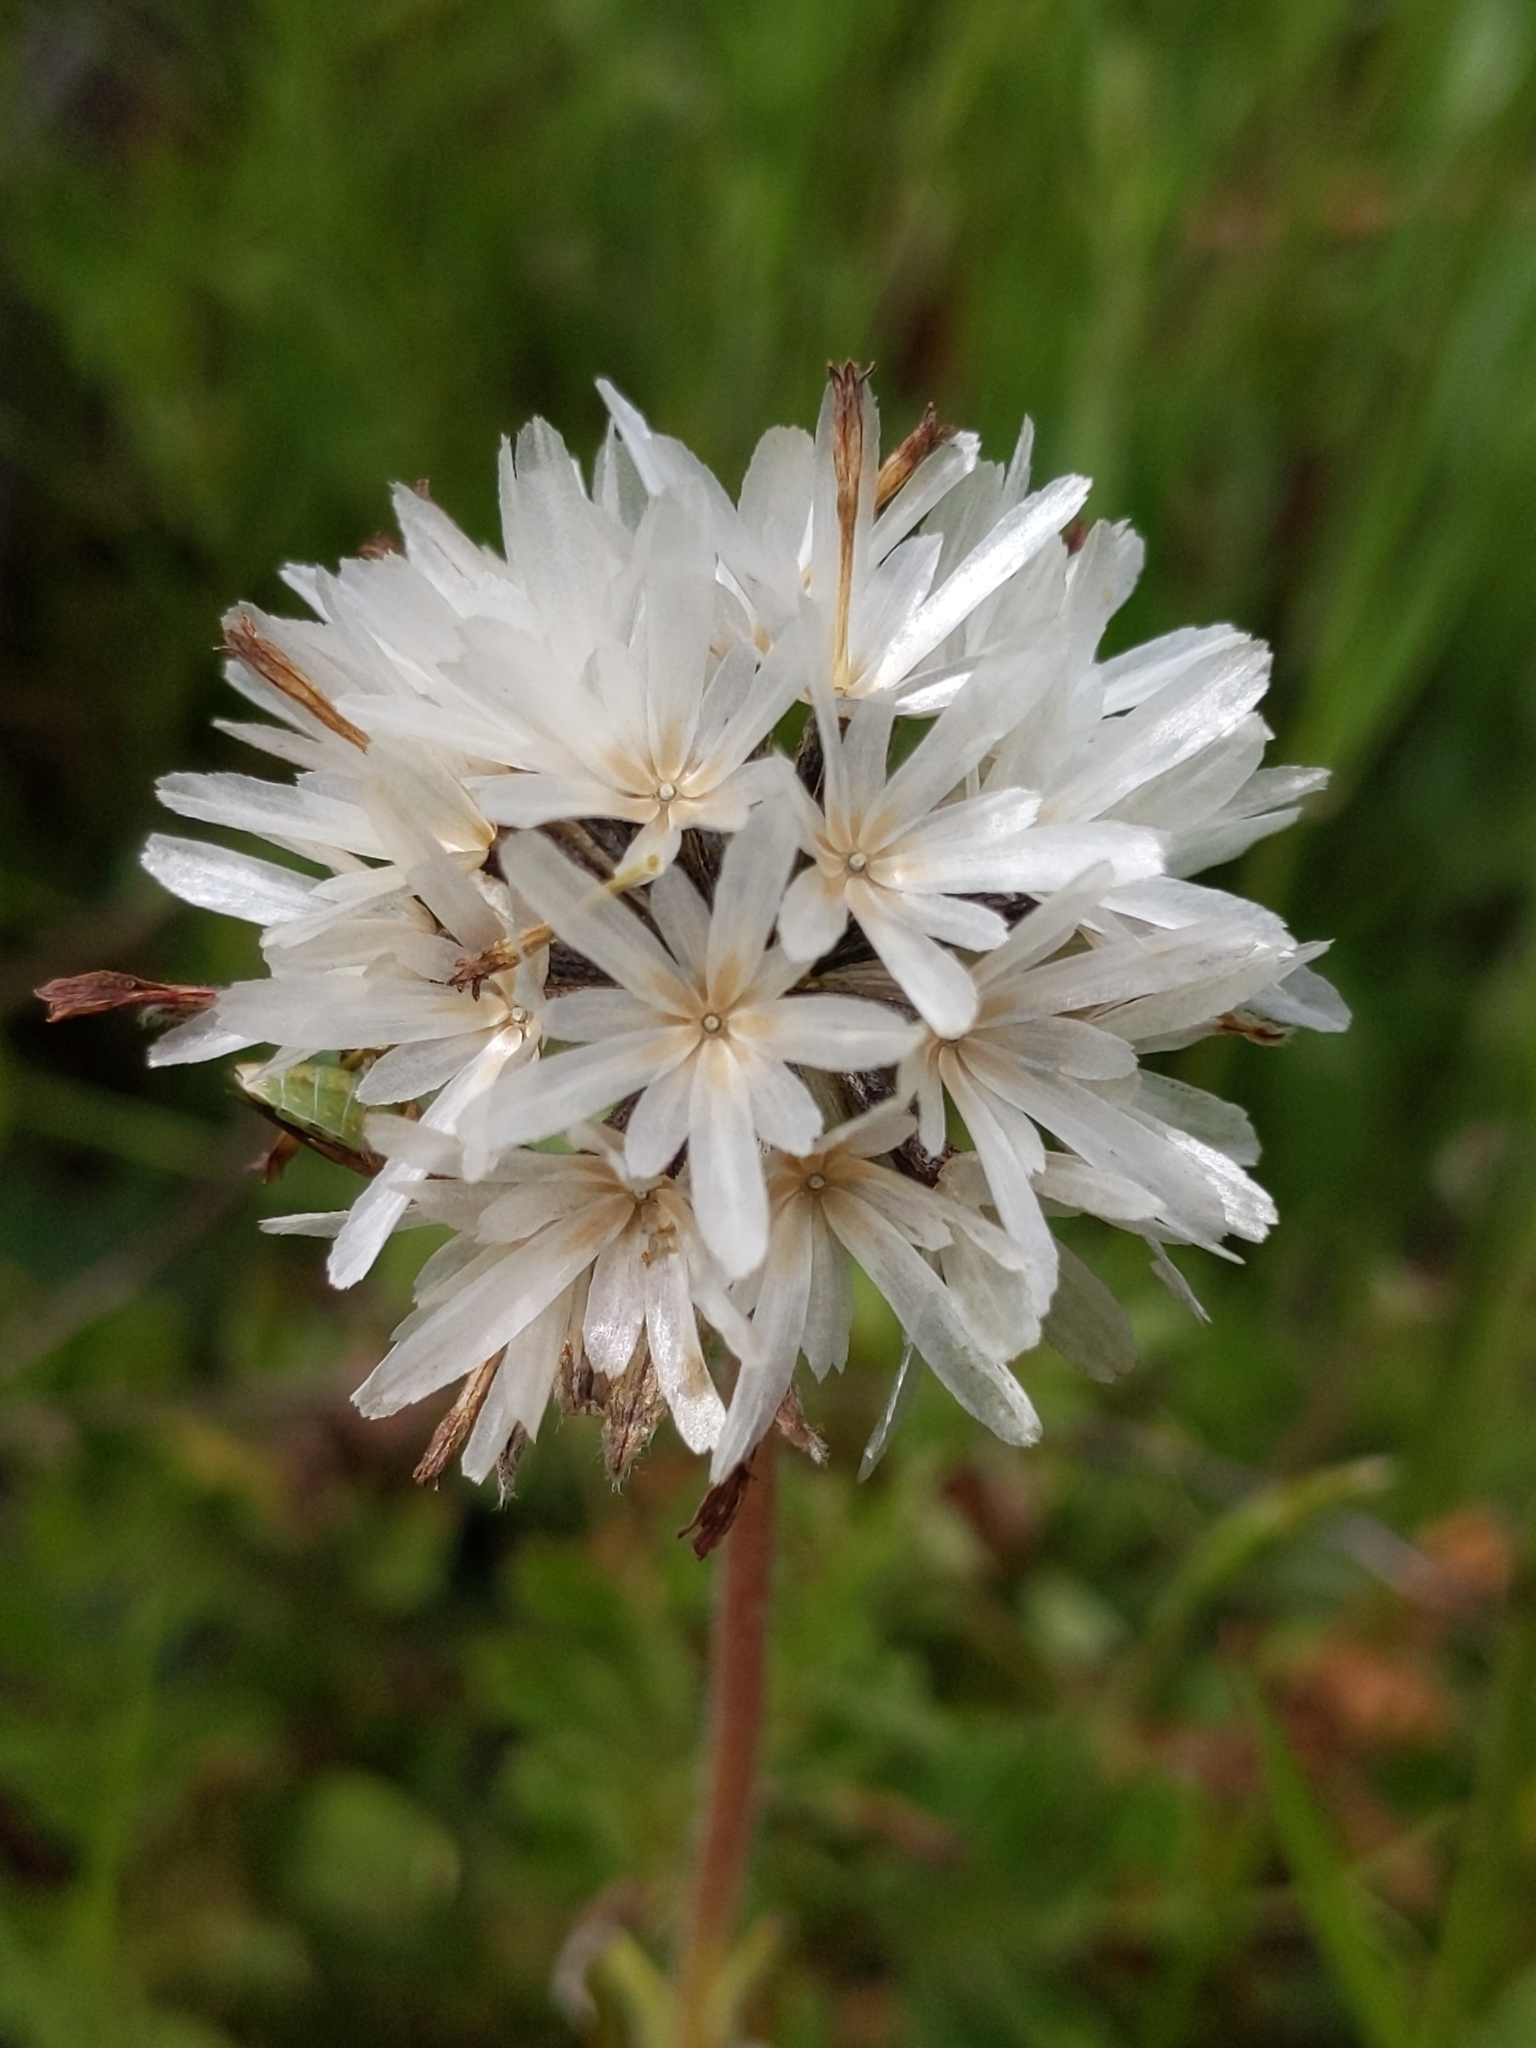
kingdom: Plantae
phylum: Tracheophyta
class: Magnoliopsida
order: Asterales
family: Asteraceae
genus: Achyrachaena
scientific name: Achyrachaena mollis
